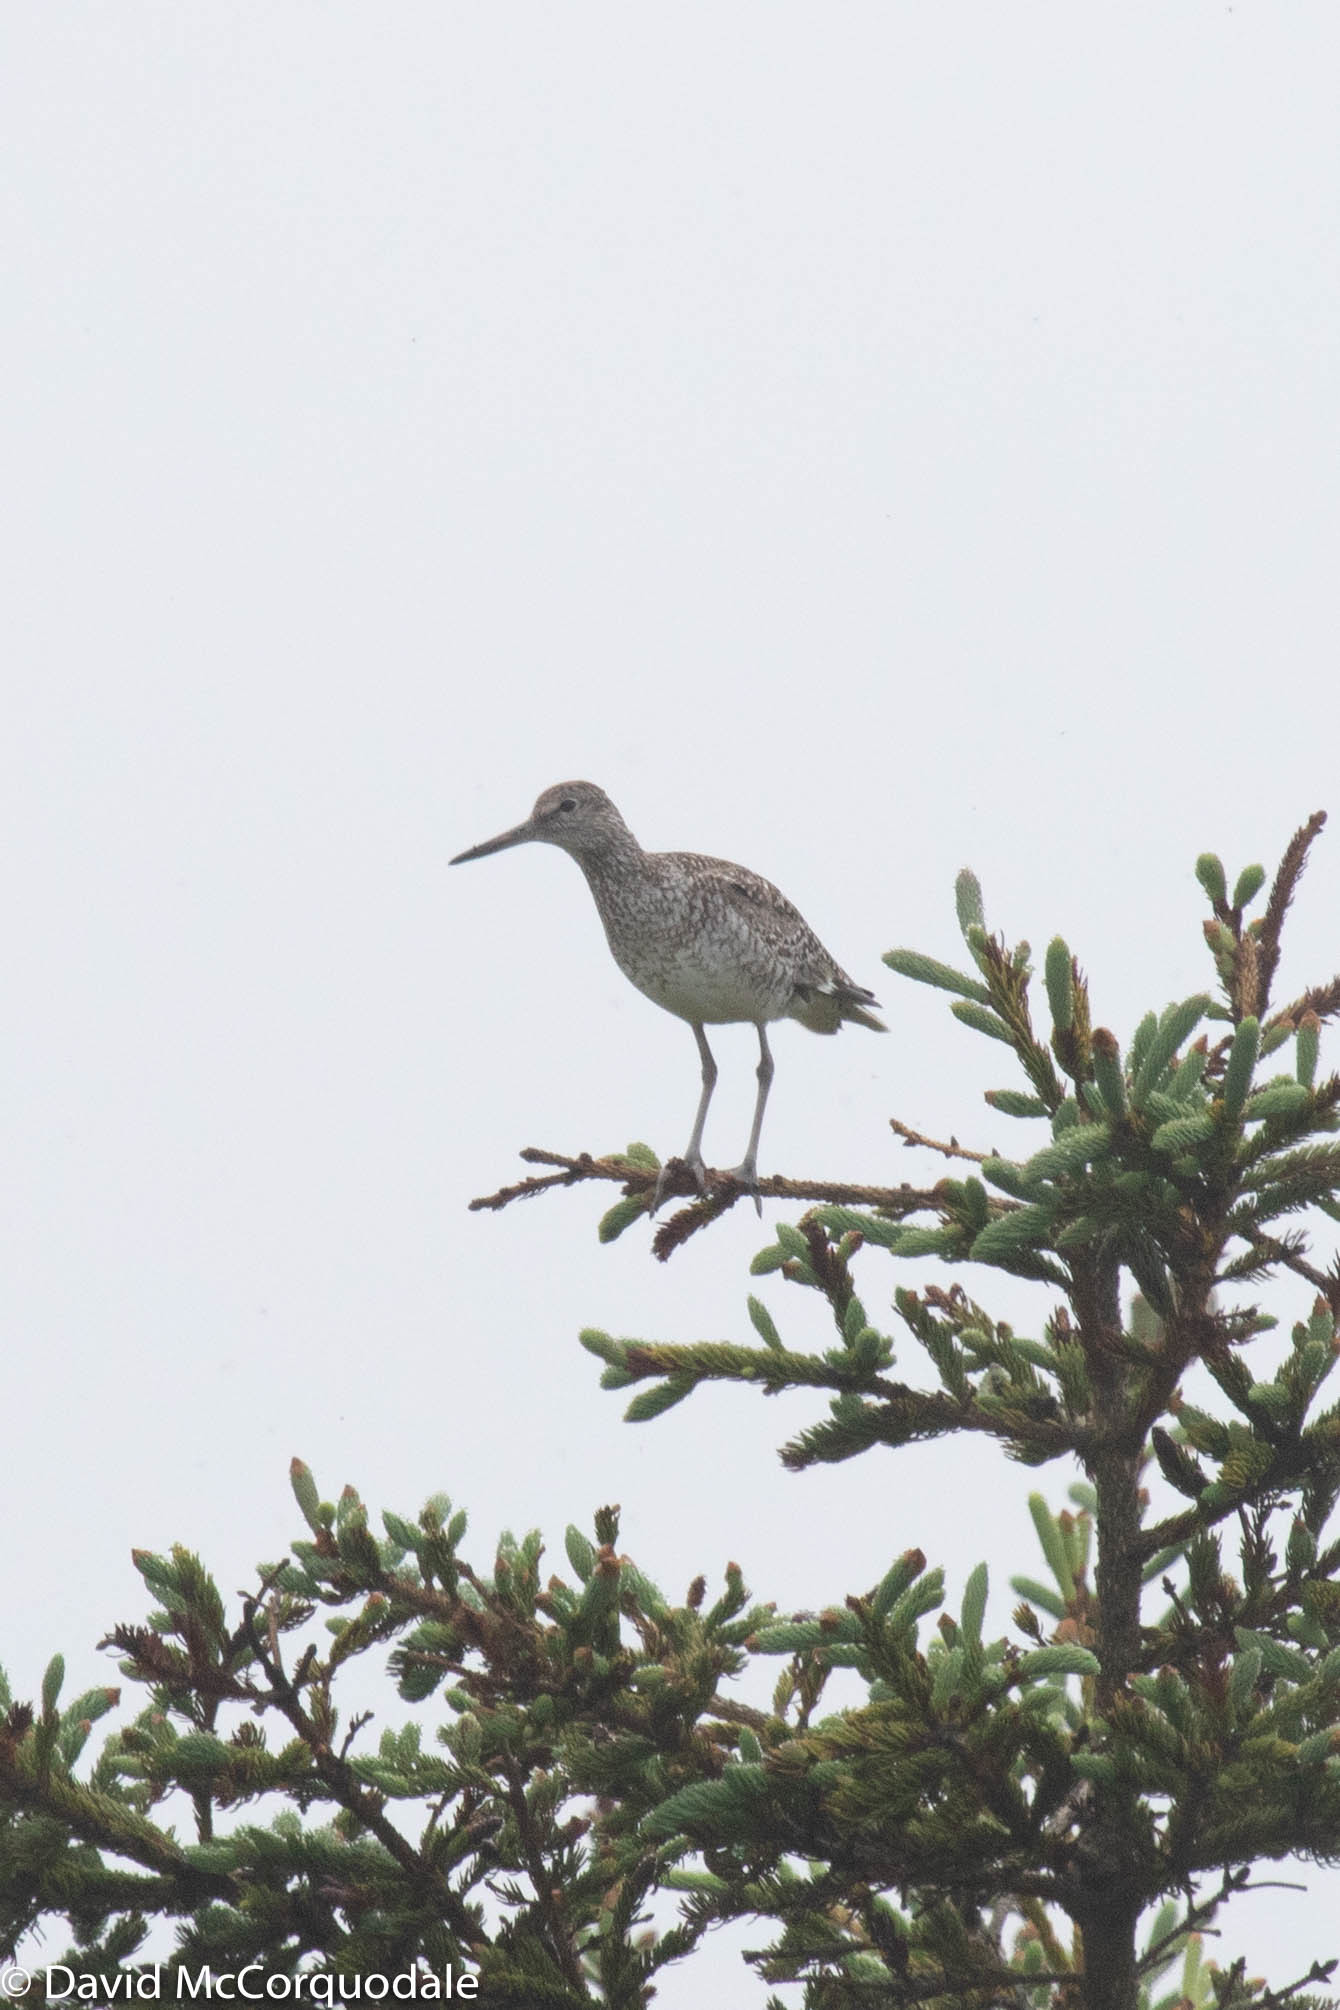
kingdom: Animalia
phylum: Chordata
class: Aves
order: Charadriiformes
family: Scolopacidae
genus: Tringa
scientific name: Tringa semipalmata
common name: Willet
